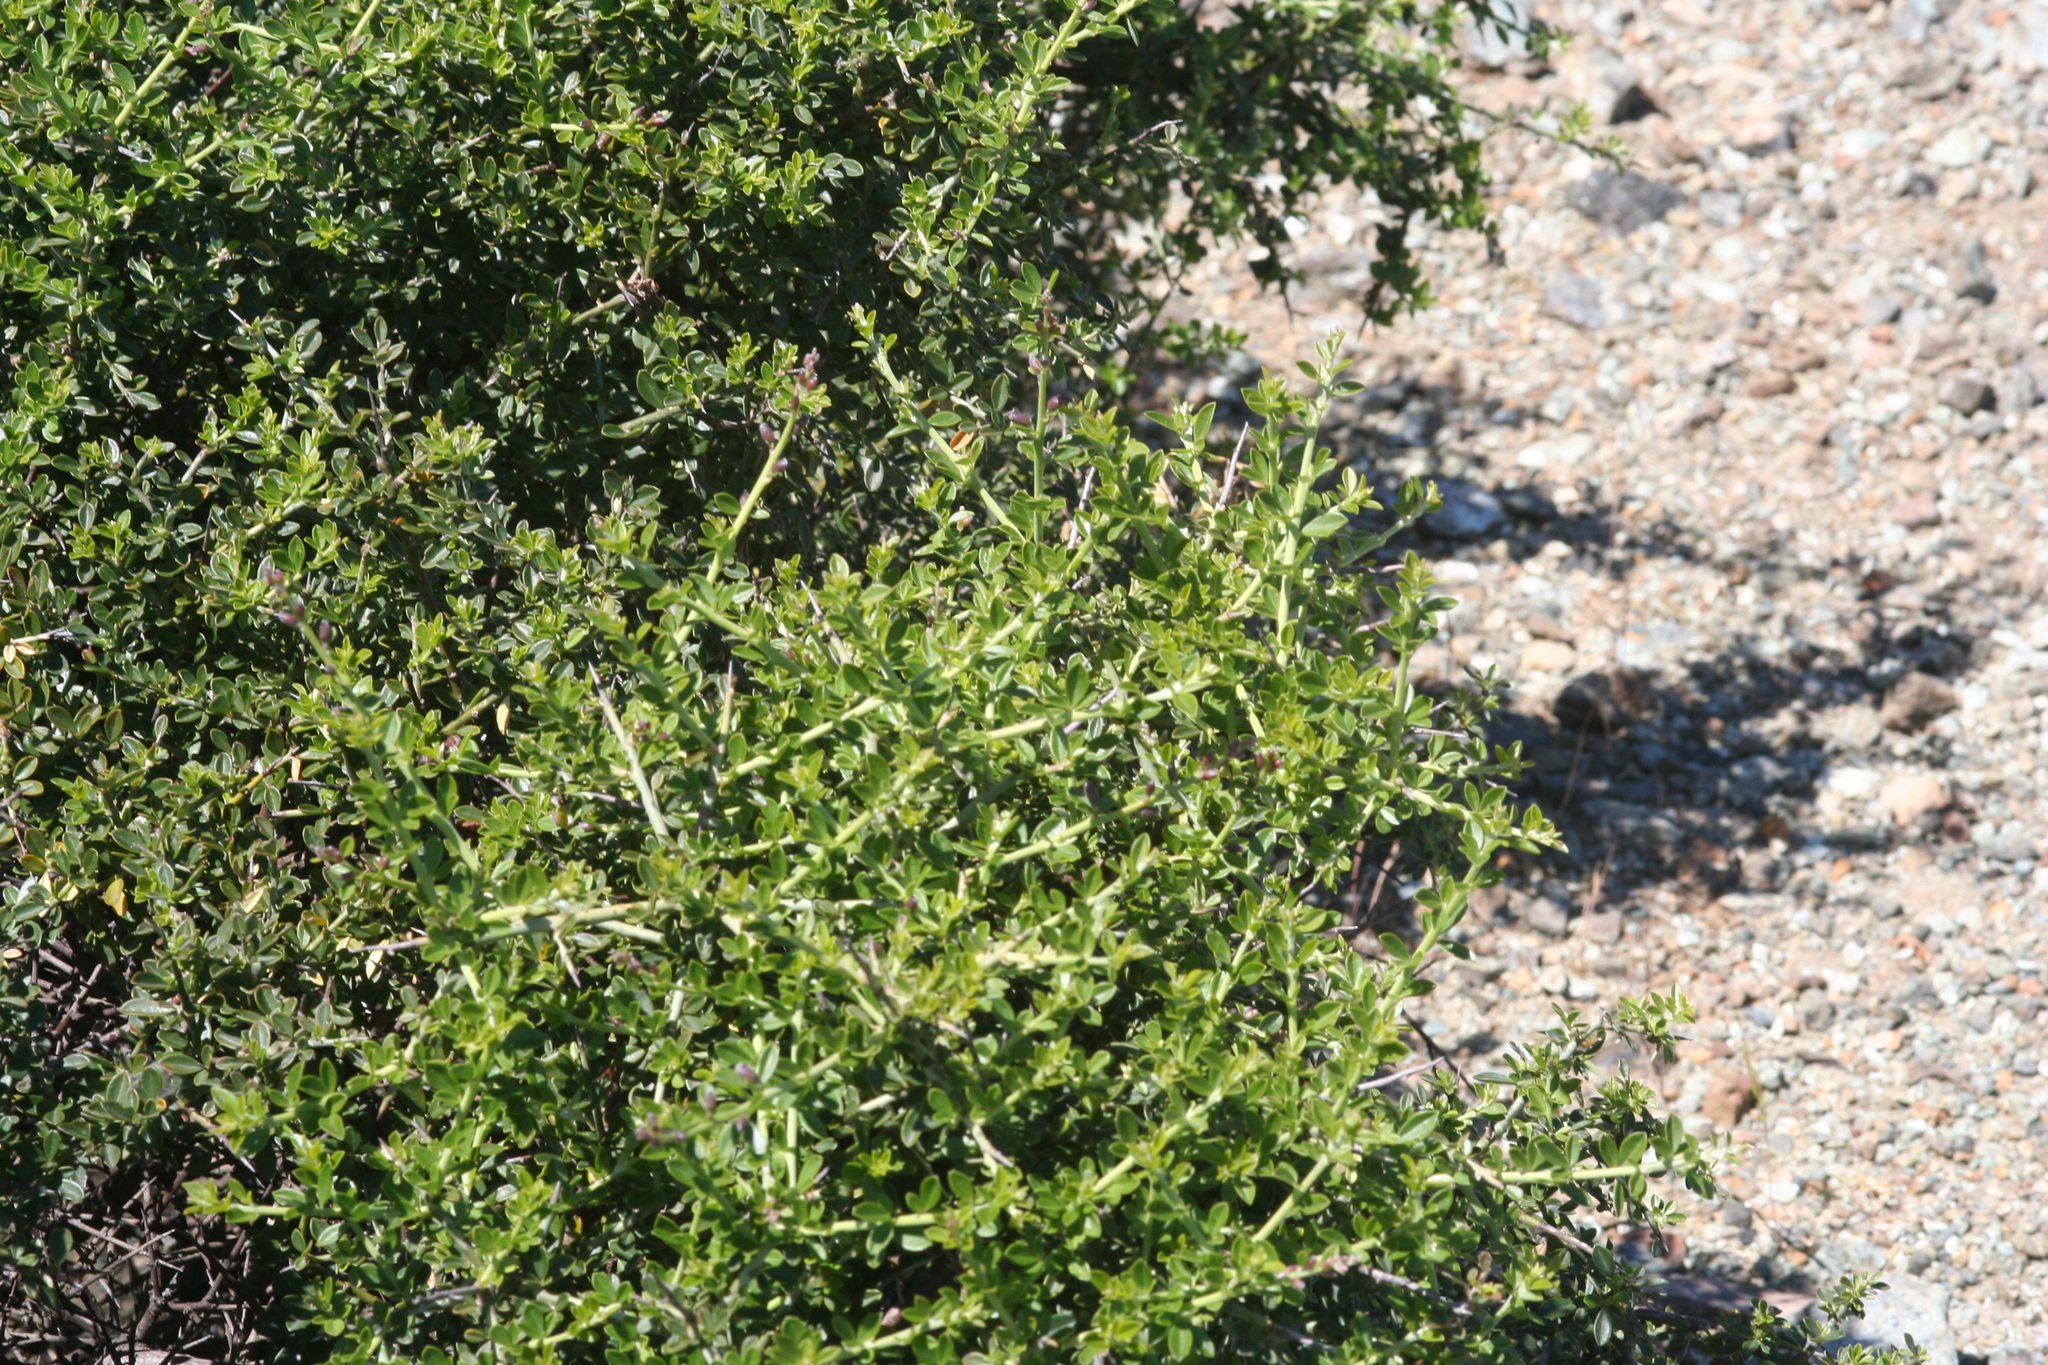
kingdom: Plantae
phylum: Tracheophyta
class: Magnoliopsida
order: Fabales
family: Fabaceae
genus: Pickeringia
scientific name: Pickeringia montana
